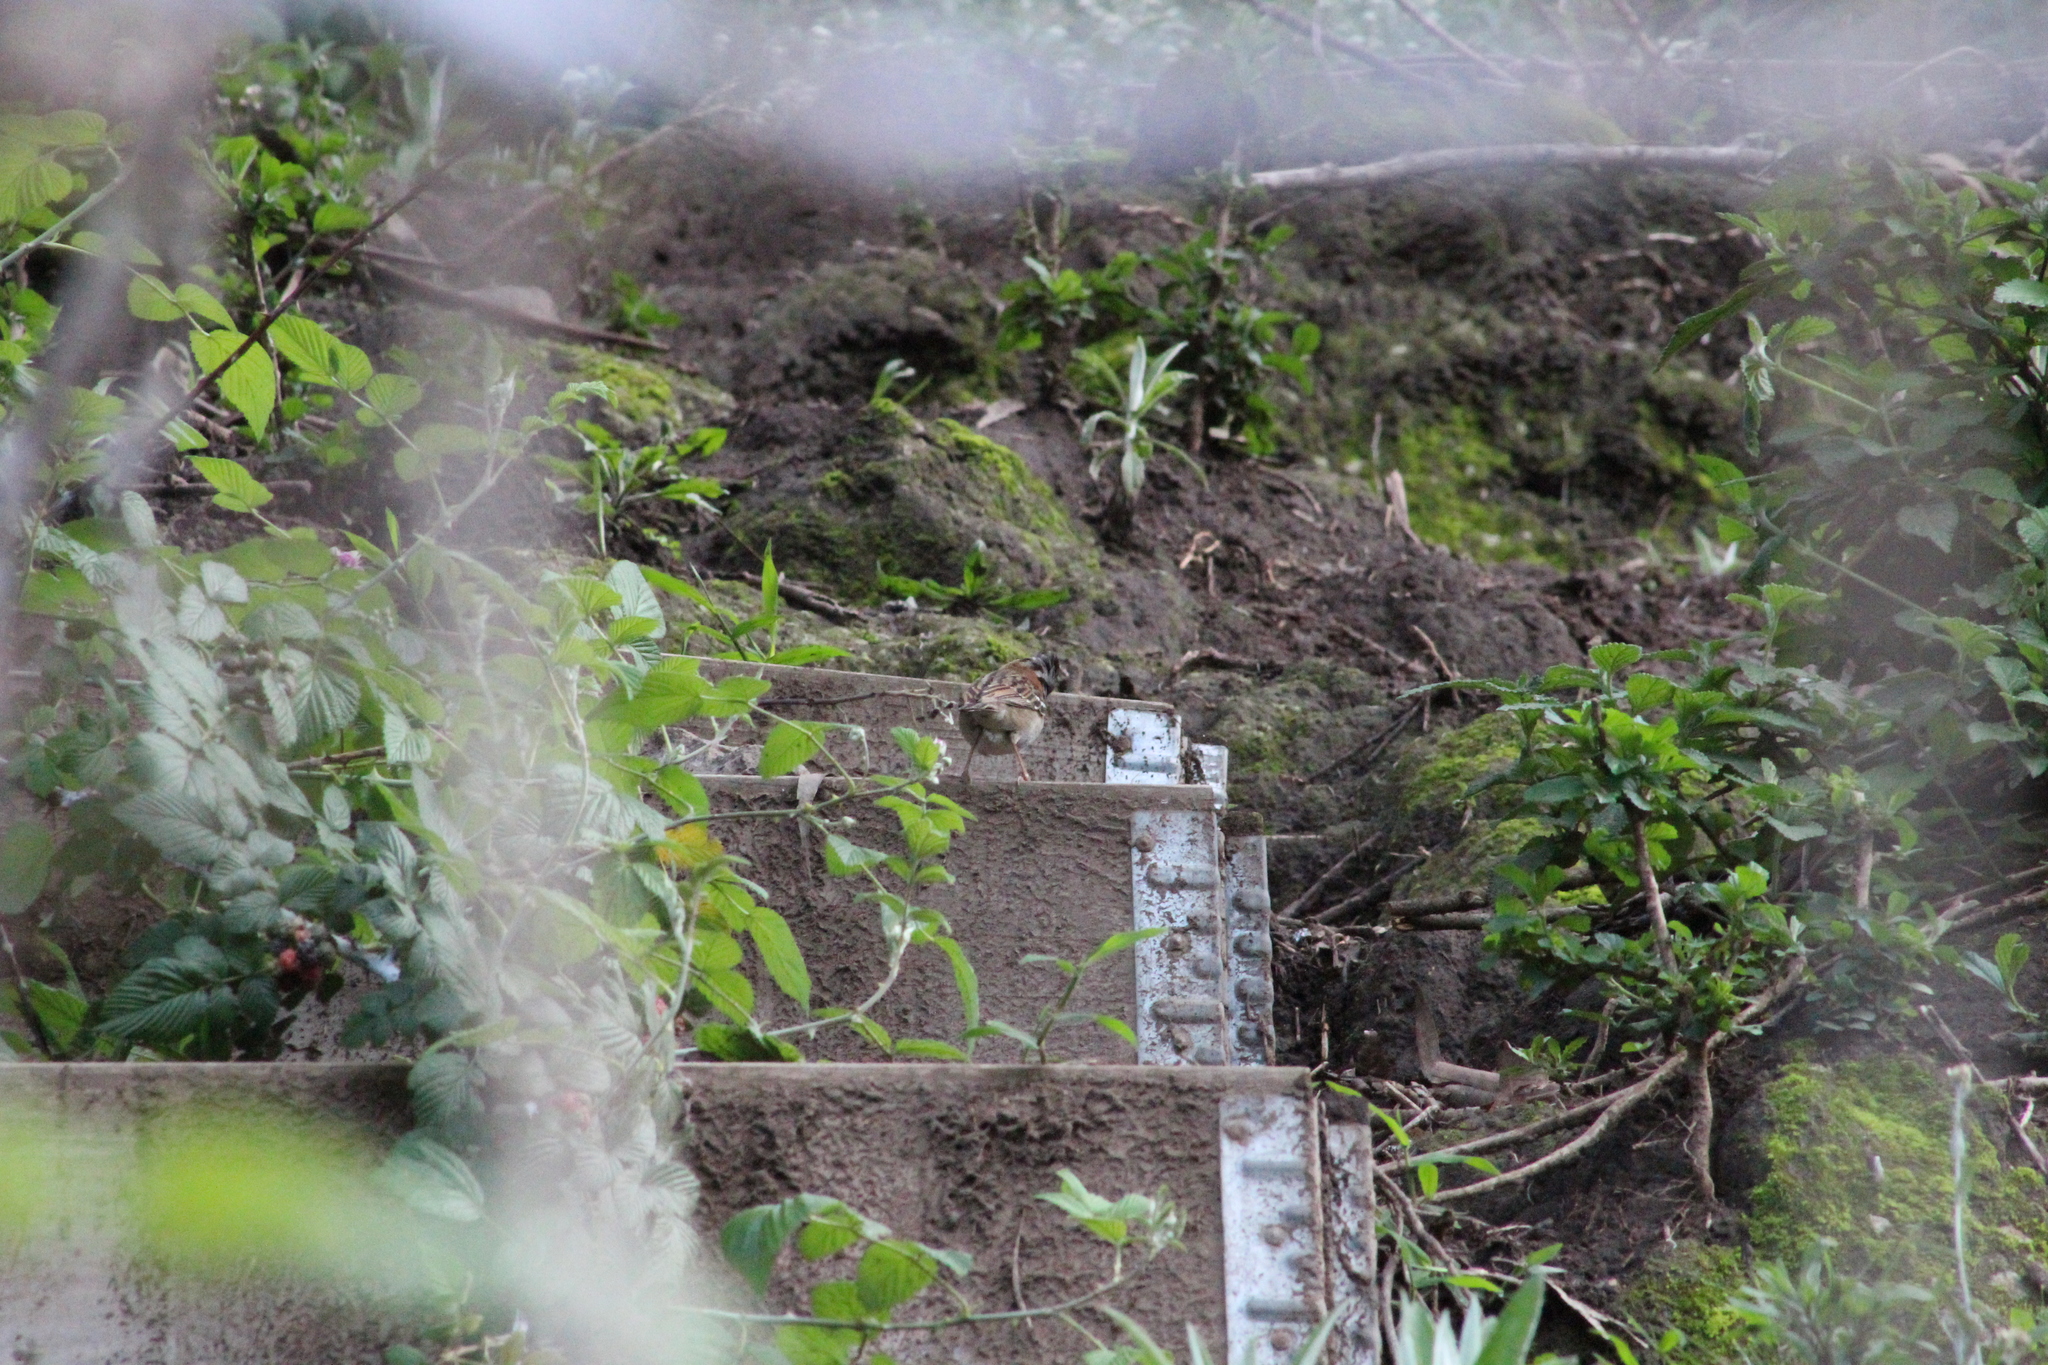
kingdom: Animalia
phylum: Chordata
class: Aves
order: Passeriformes
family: Passerellidae
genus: Zonotrichia
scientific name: Zonotrichia capensis
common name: Rufous-collared sparrow
